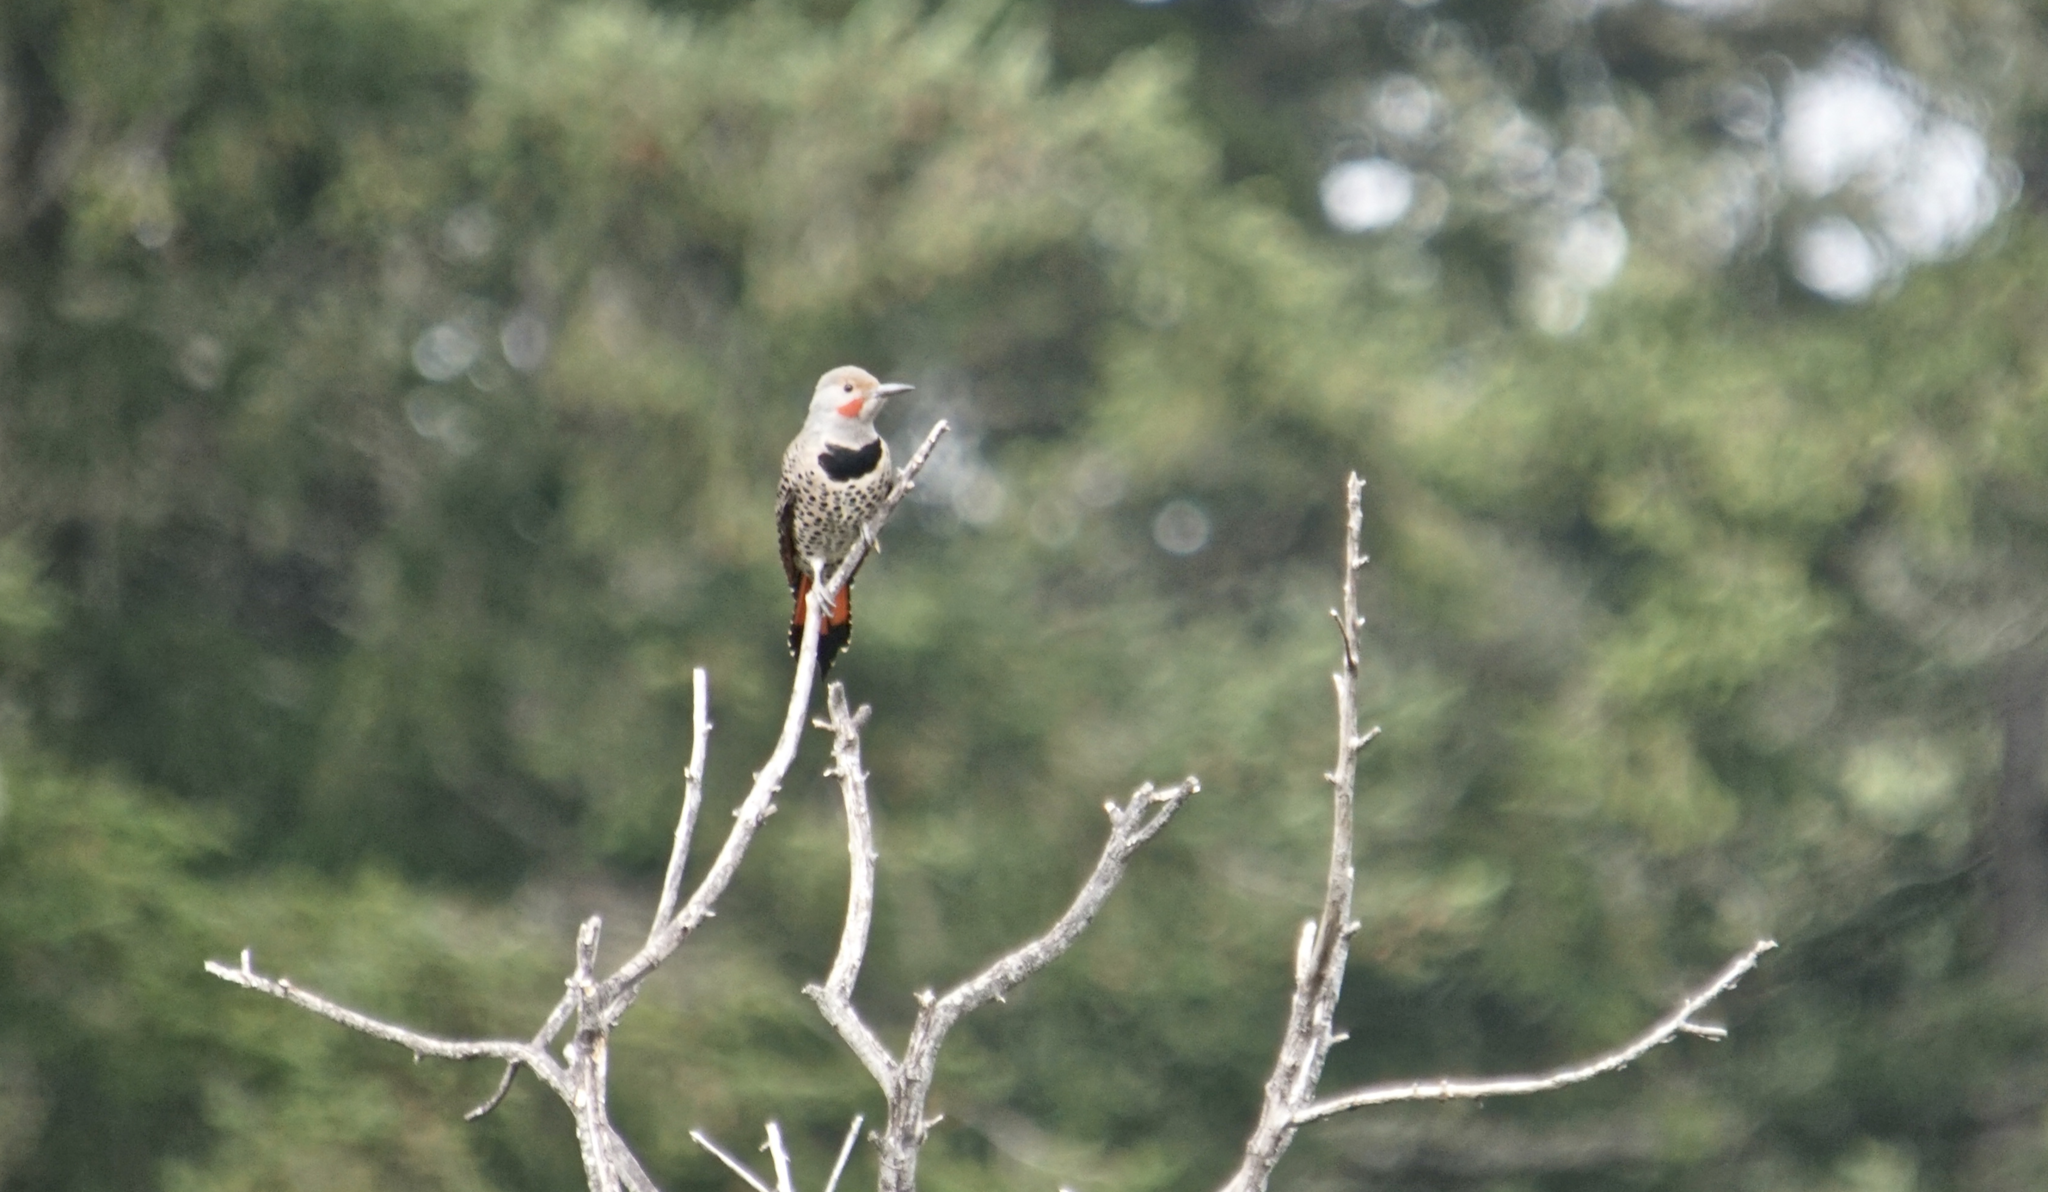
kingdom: Animalia
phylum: Chordata
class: Aves
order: Piciformes
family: Picidae
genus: Colaptes
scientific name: Colaptes auratus
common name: Northern flicker
